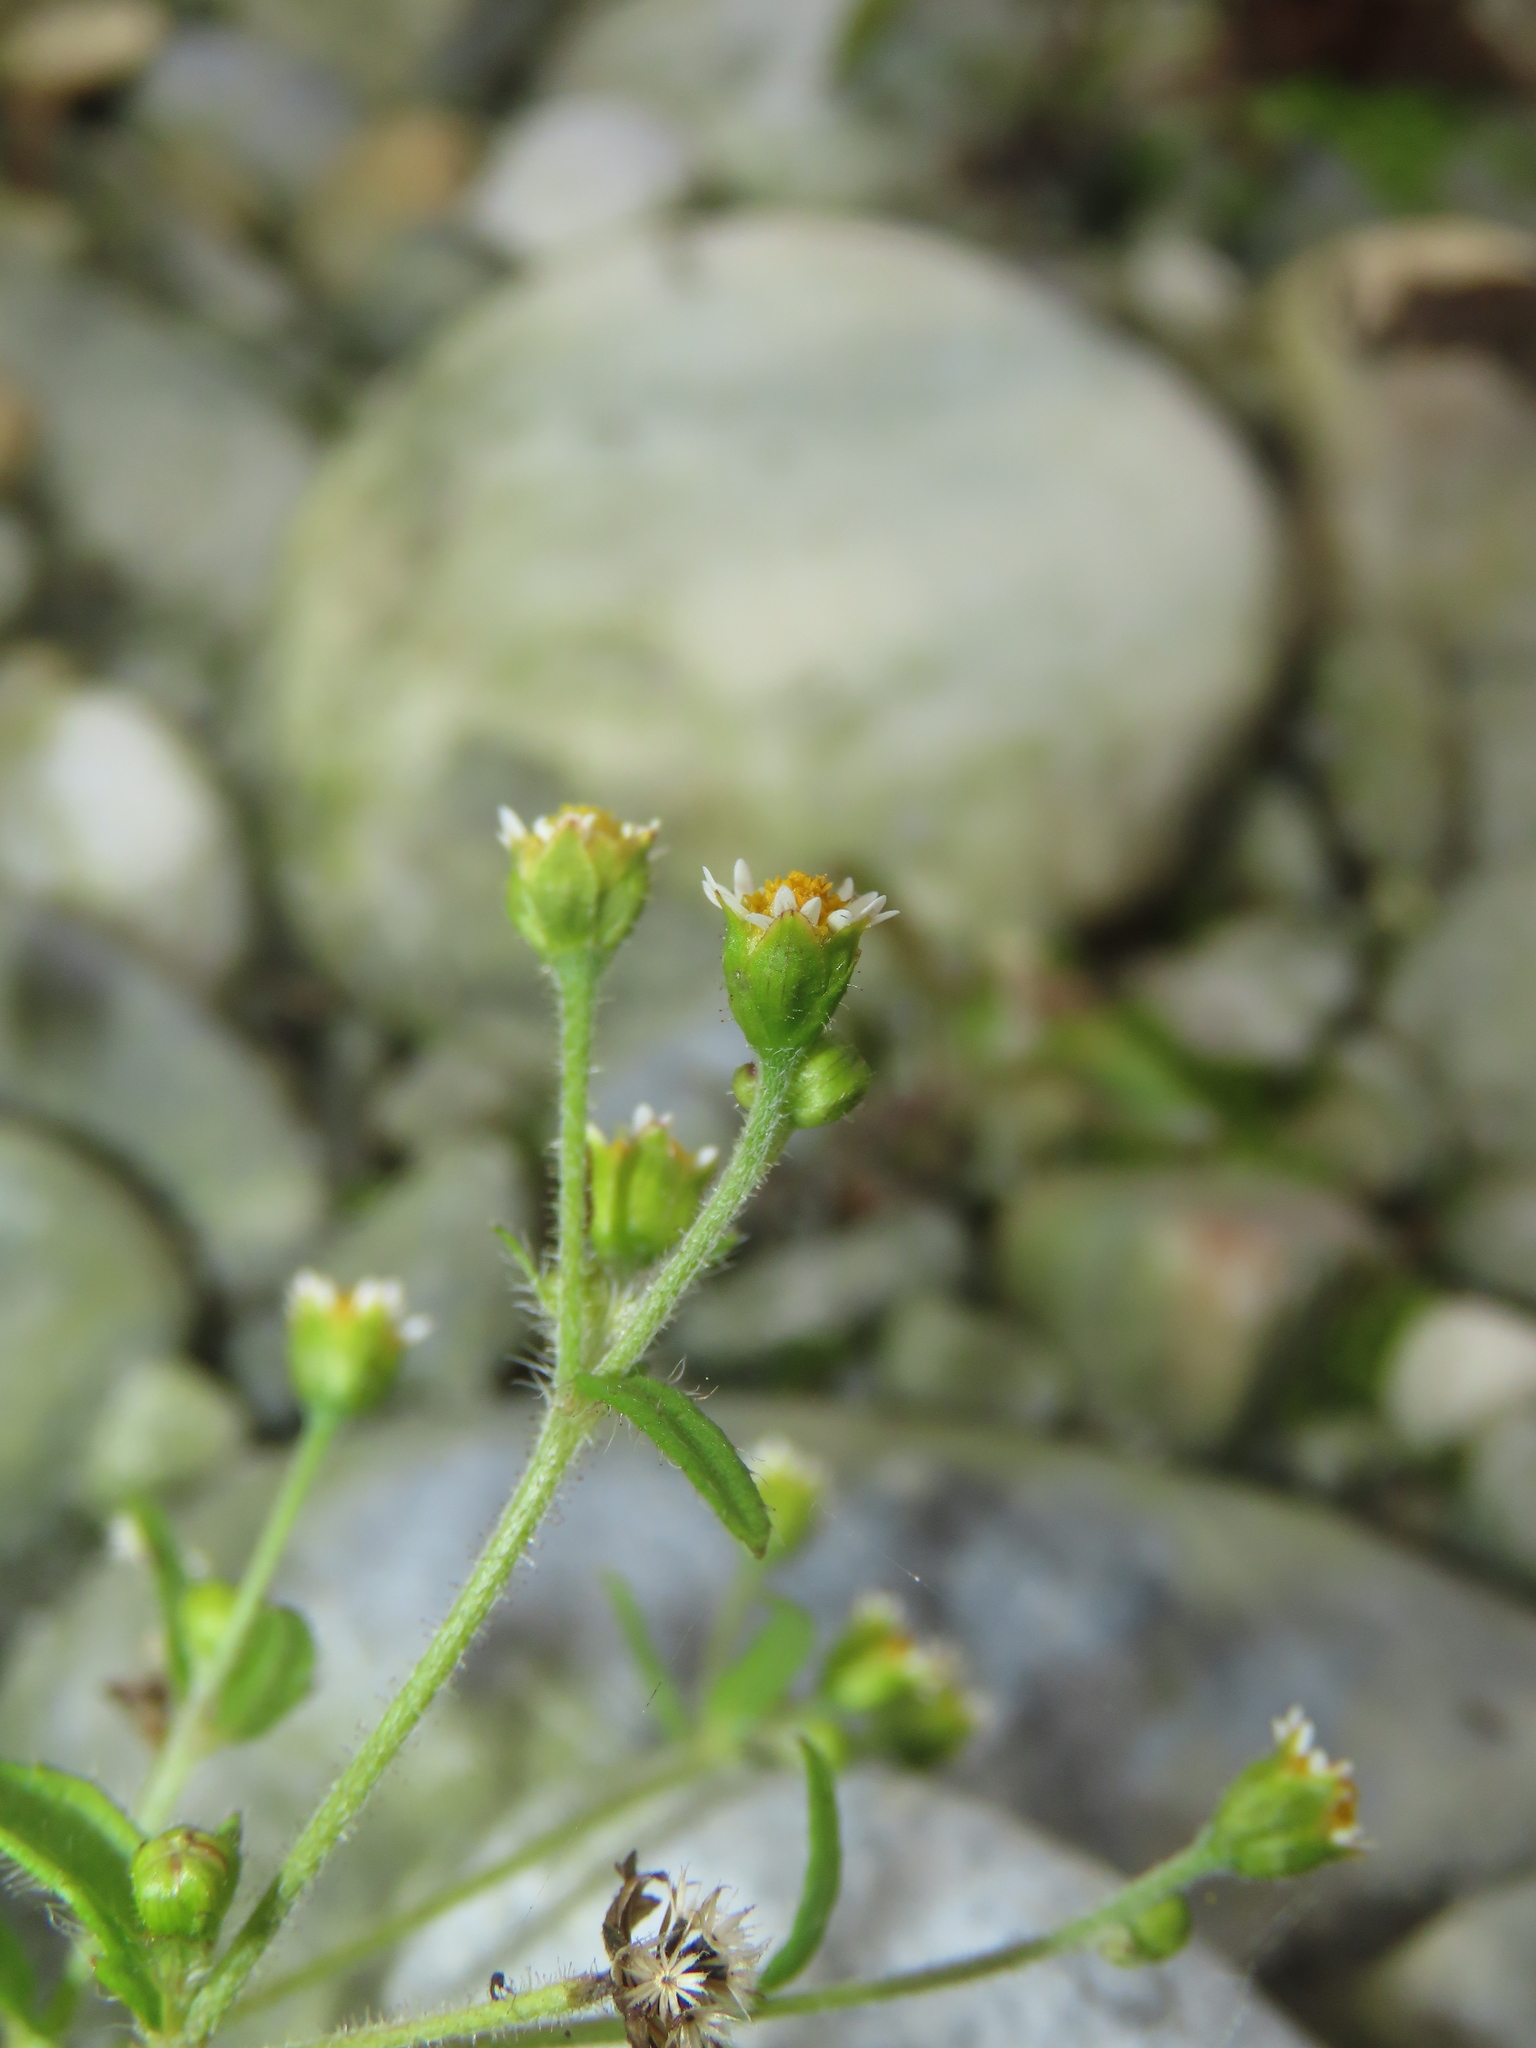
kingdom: Plantae
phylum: Tracheophyta
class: Magnoliopsida
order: Asterales
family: Asteraceae
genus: Galinsoga
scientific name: Galinsoga quadriradiata
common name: Shaggy soldier
